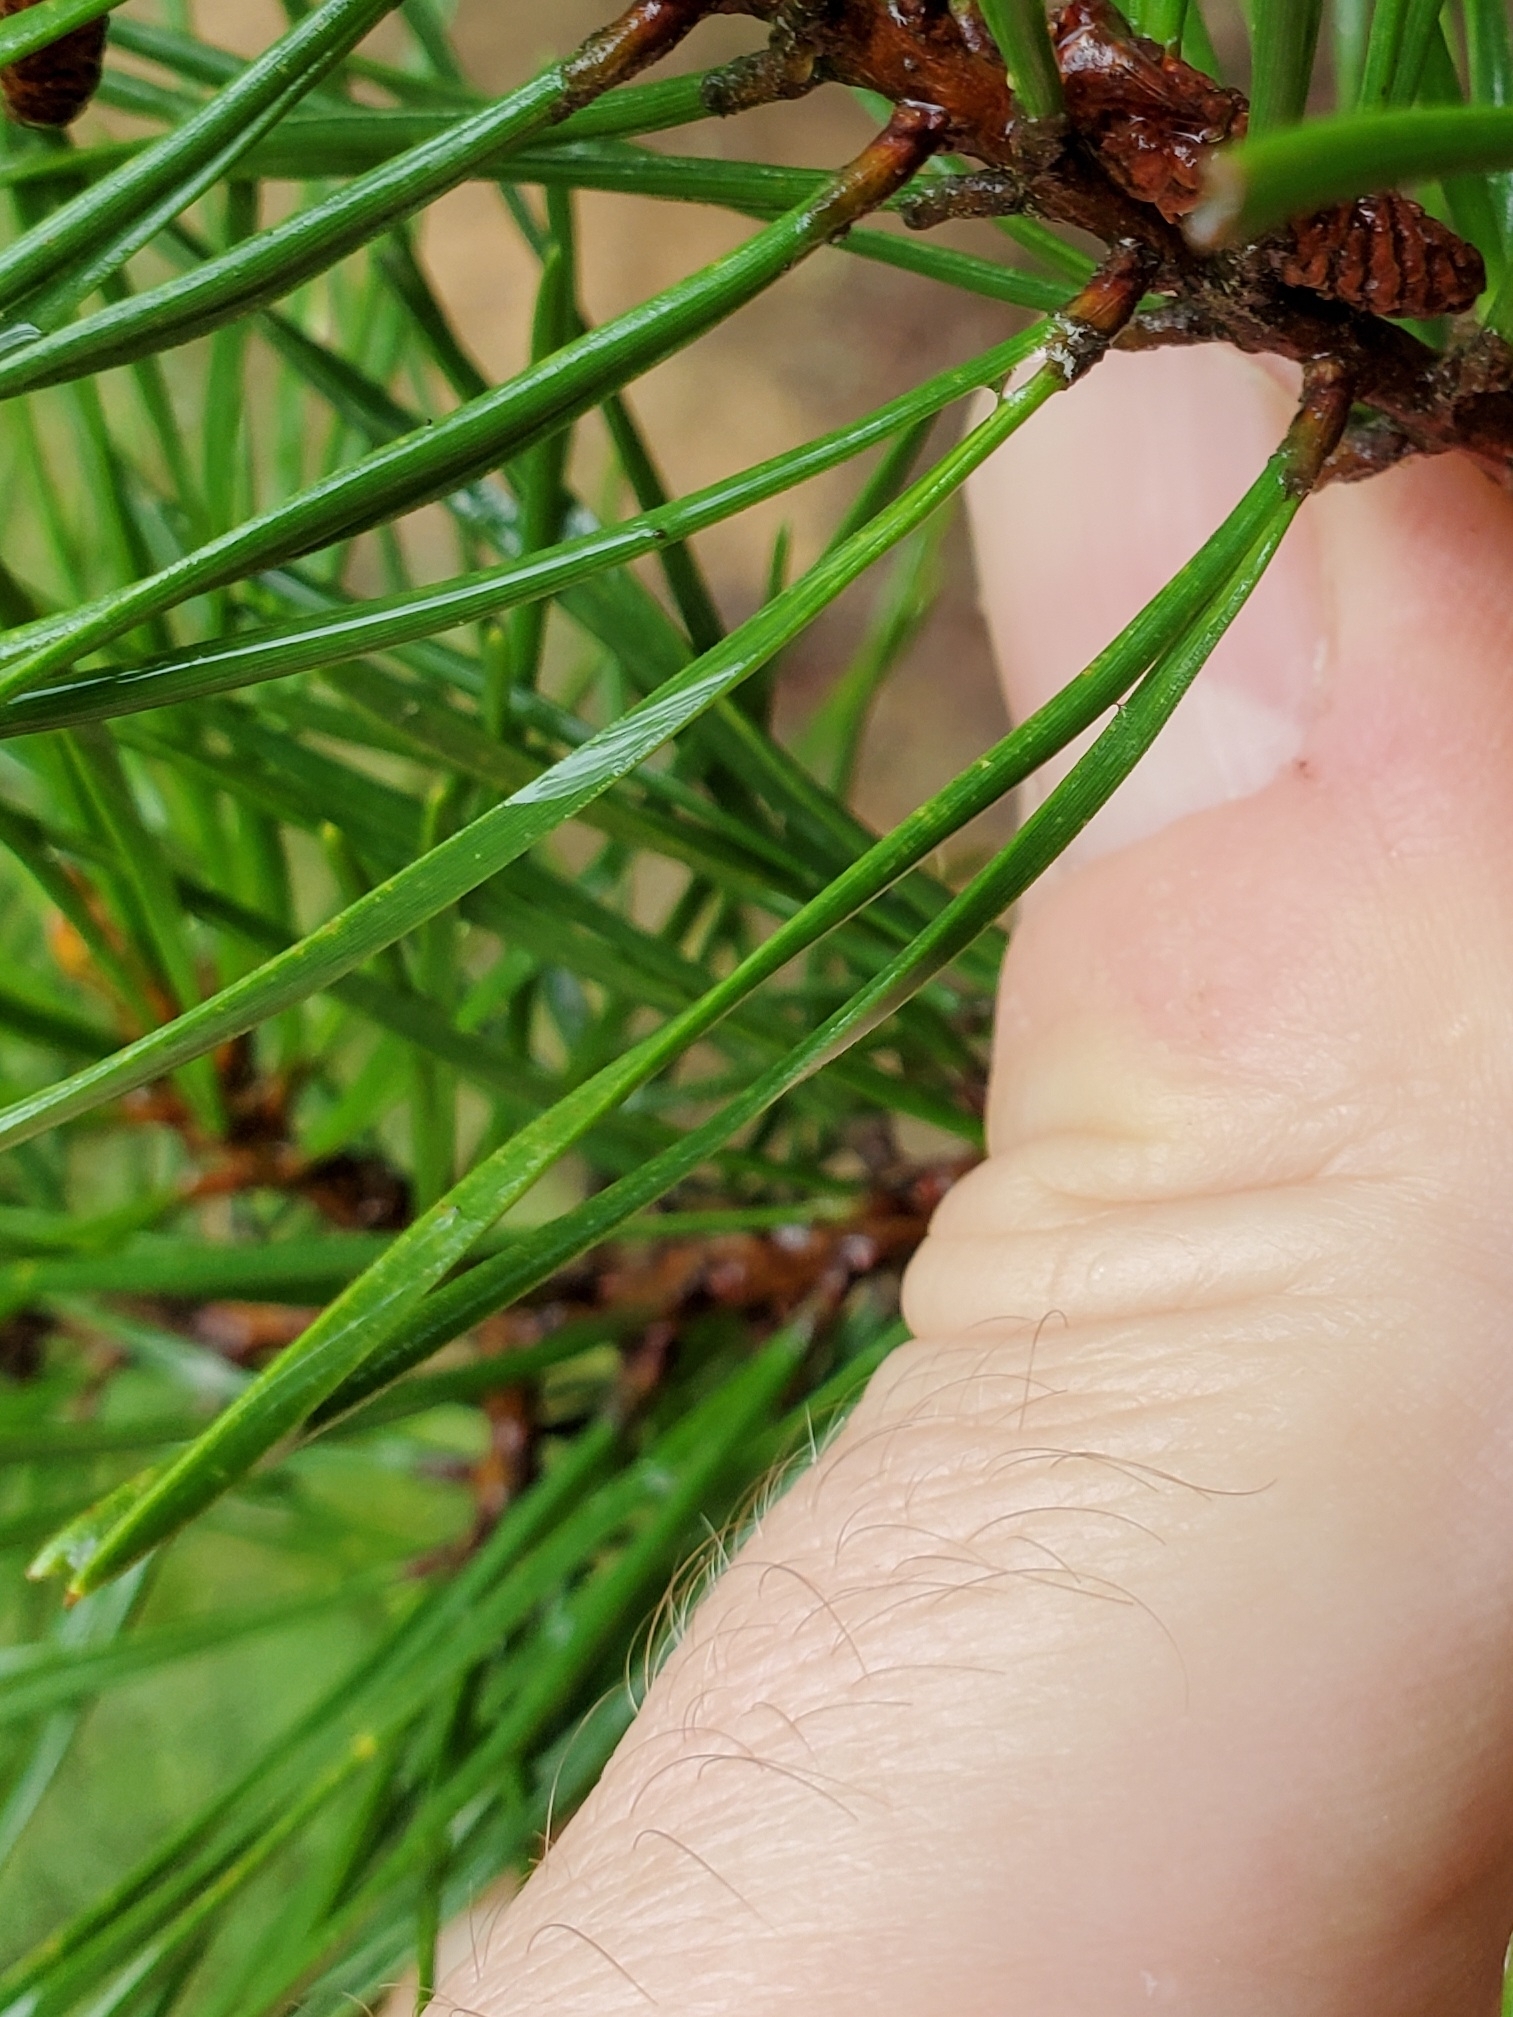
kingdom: Plantae
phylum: Tracheophyta
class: Pinopsida
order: Pinales
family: Pinaceae
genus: Pinus
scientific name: Pinus virginiana
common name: Scrub pine
